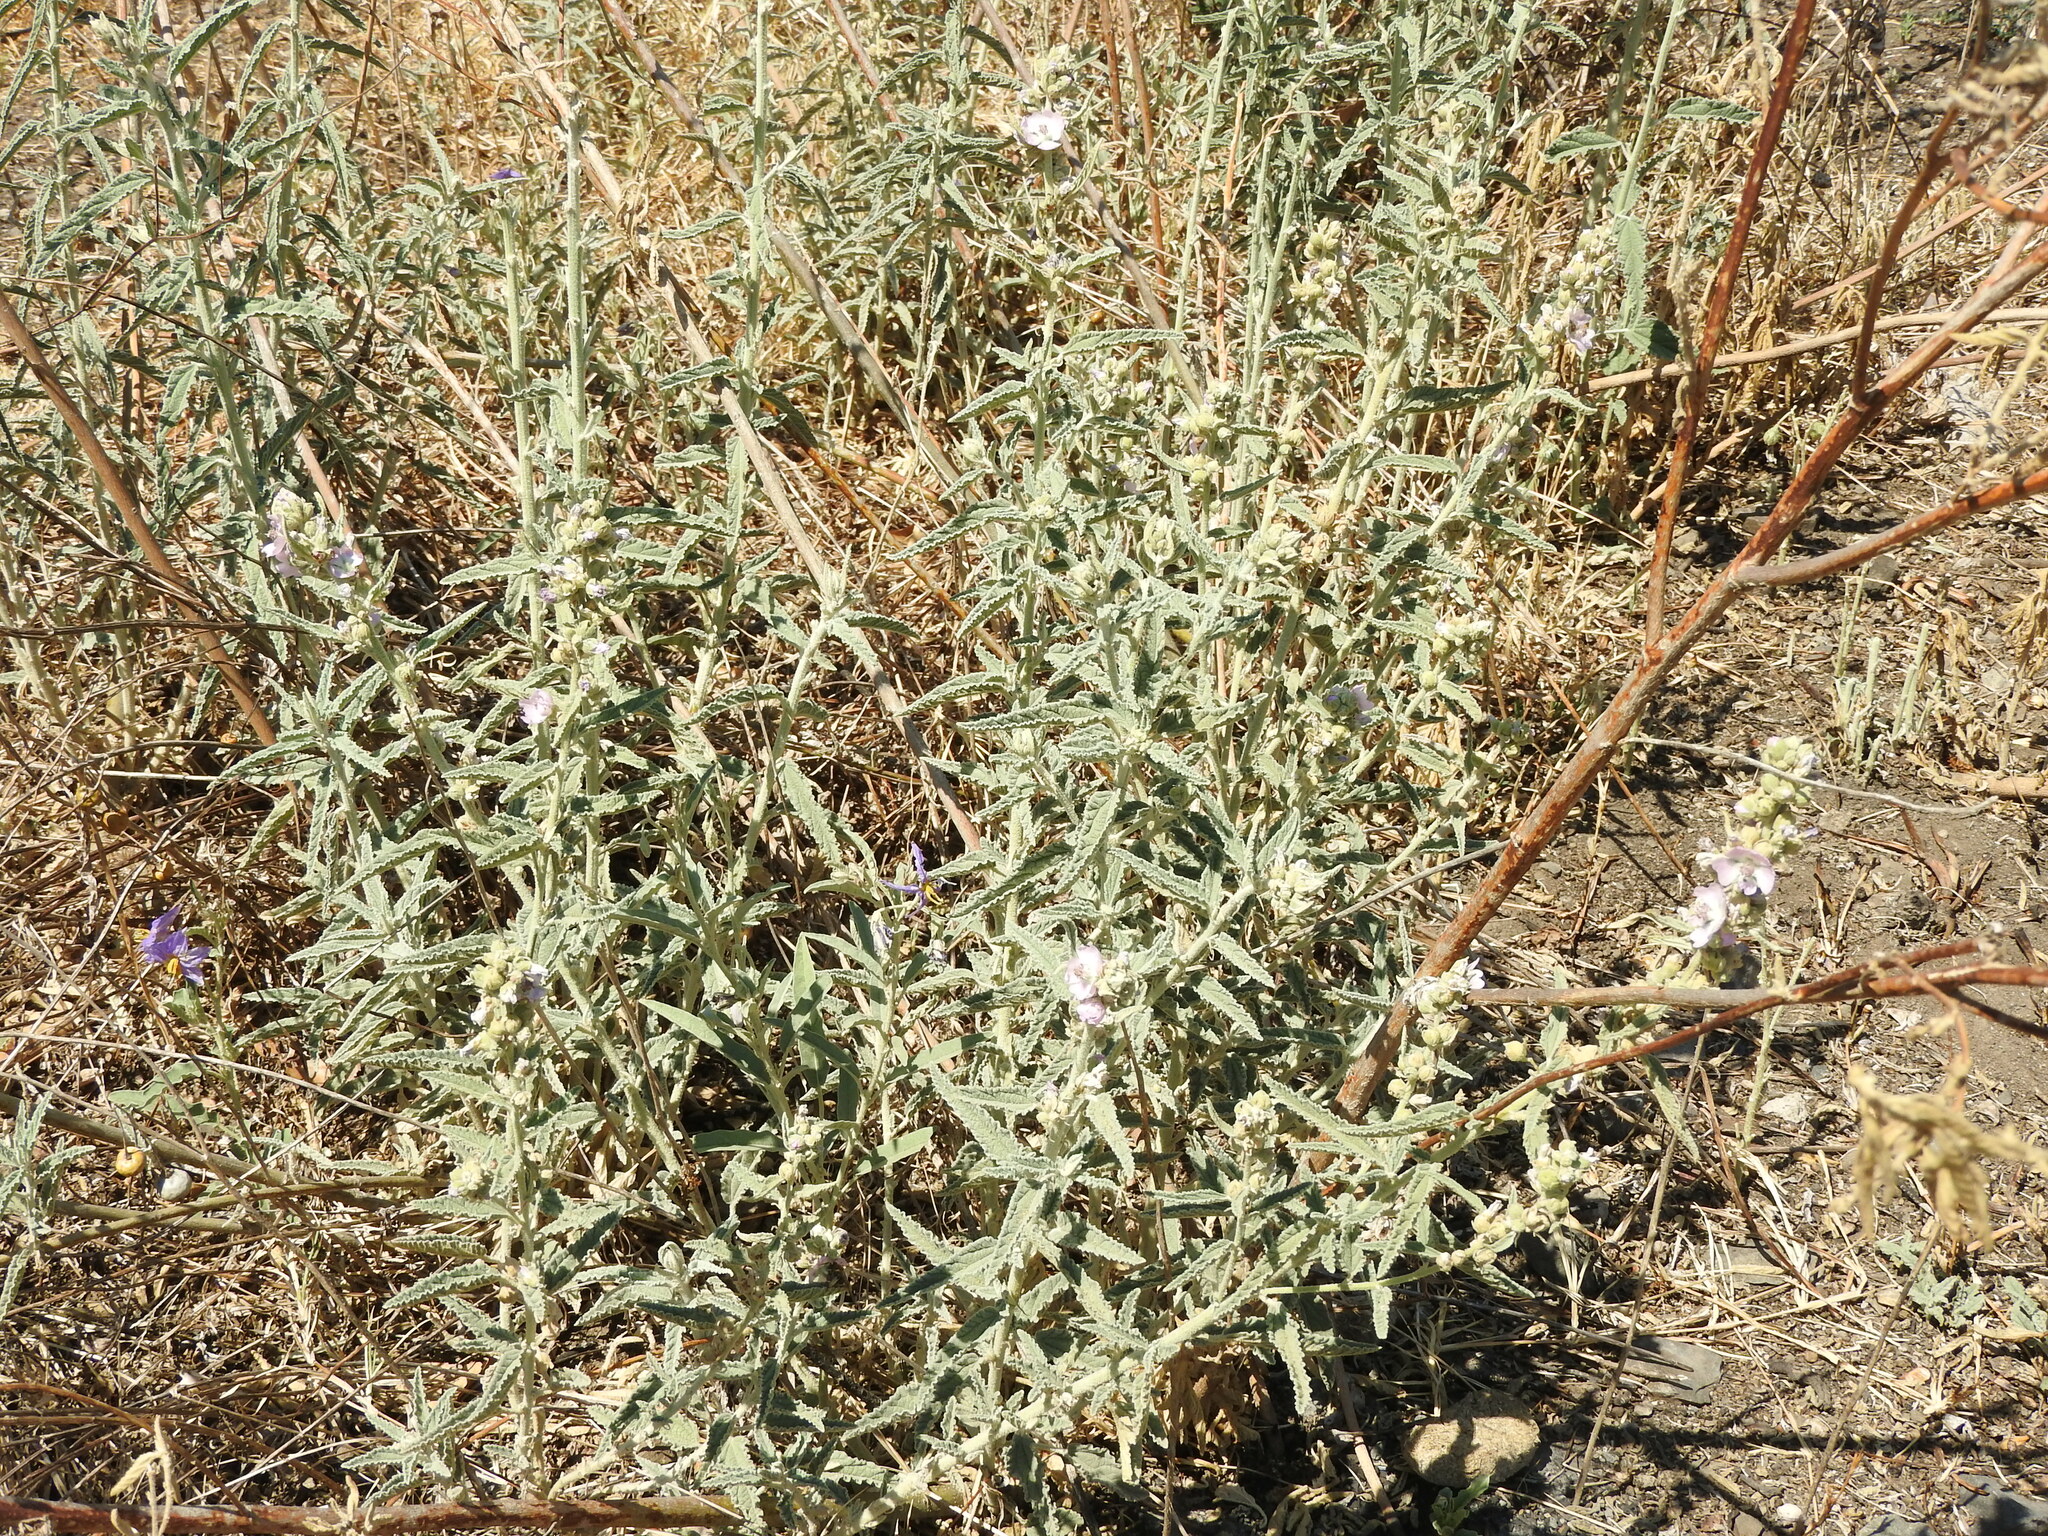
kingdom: Plantae
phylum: Tracheophyta
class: Magnoliopsida
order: Malvales
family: Malvaceae
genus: Sphaeralcea
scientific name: Sphaeralcea angustifolia
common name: Copper globe-mallow
